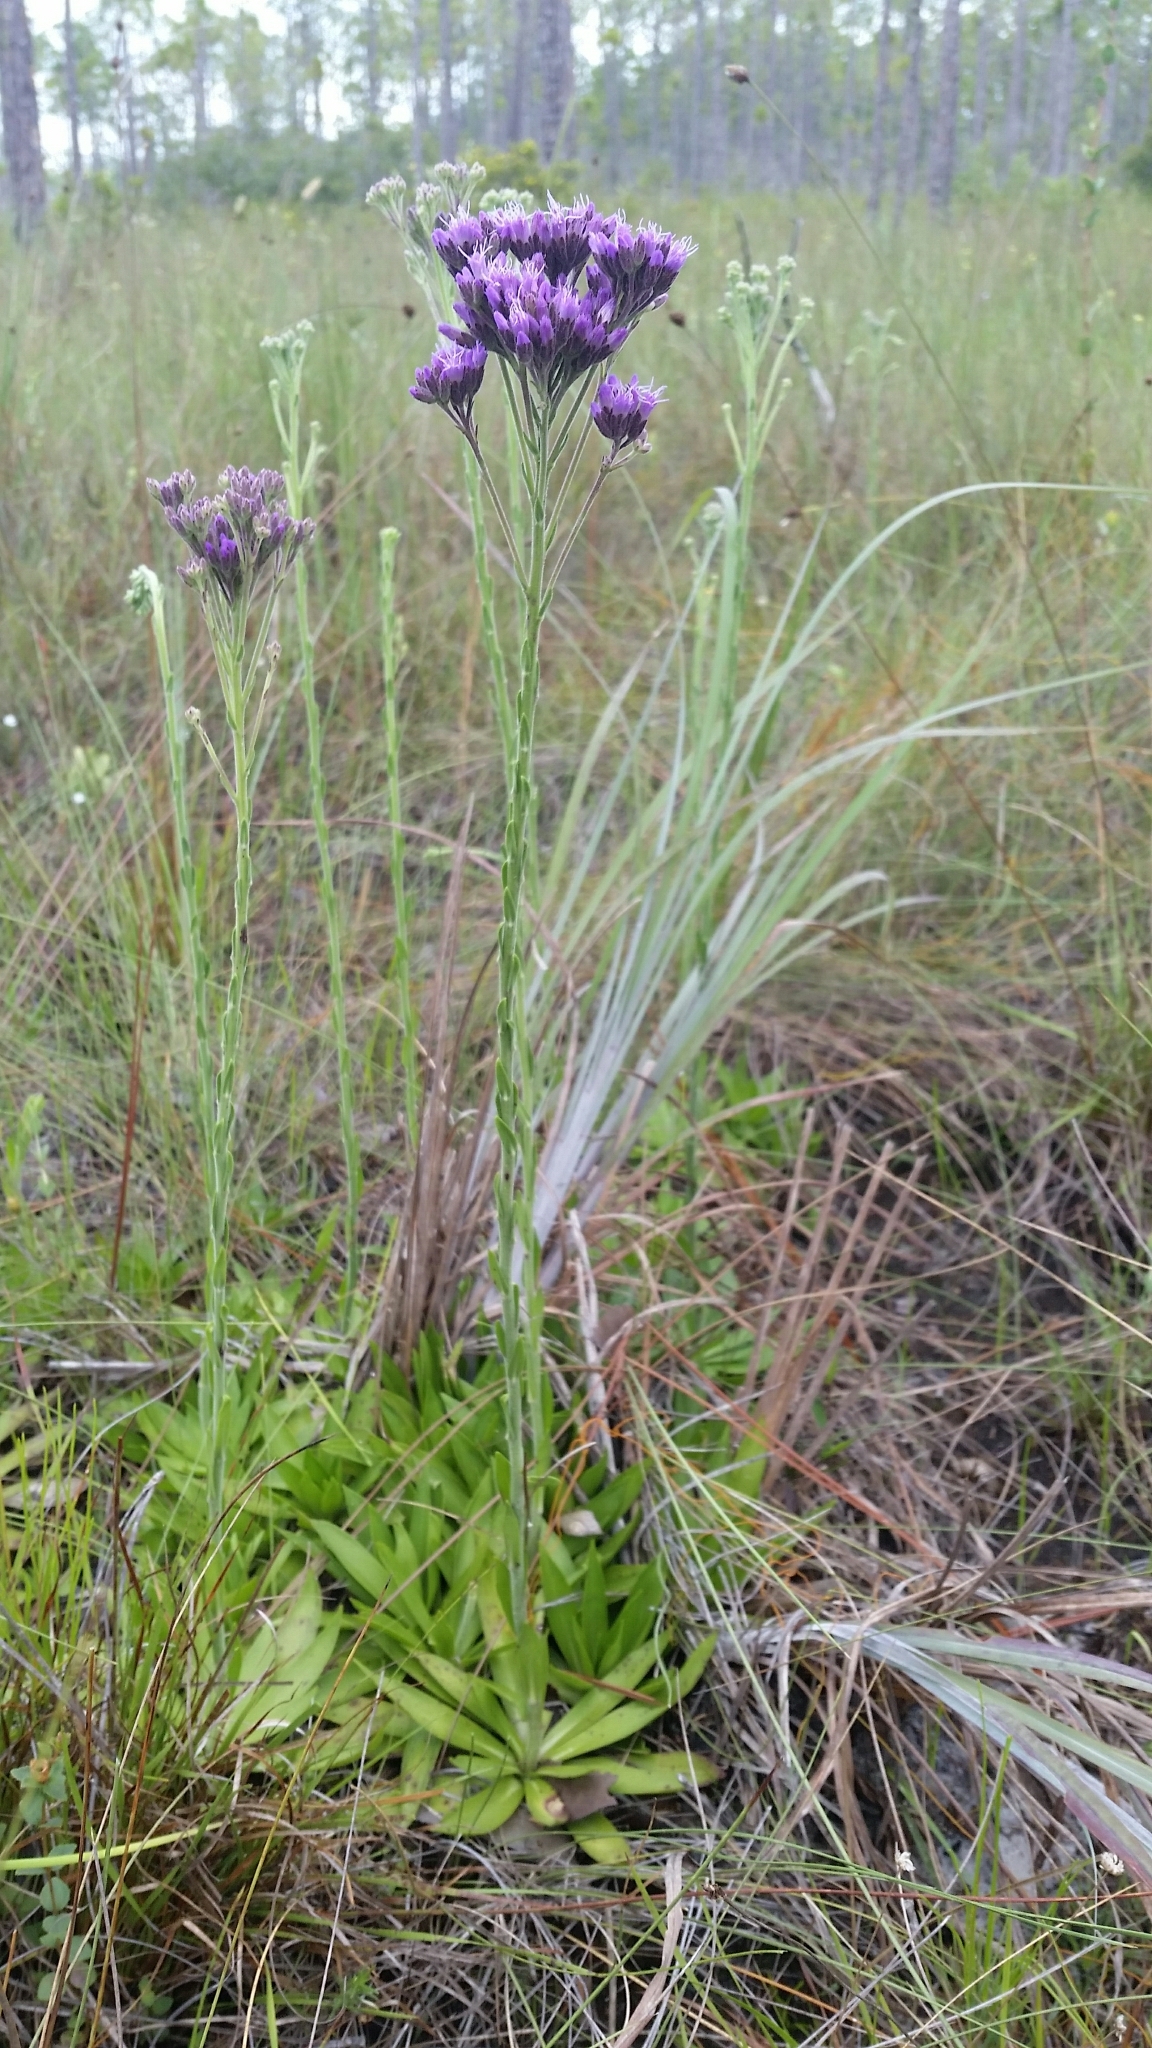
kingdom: Plantae
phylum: Tracheophyta
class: Magnoliopsida
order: Asterales
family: Asteraceae
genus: Carphephorus
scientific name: Carphephorus carnosus
